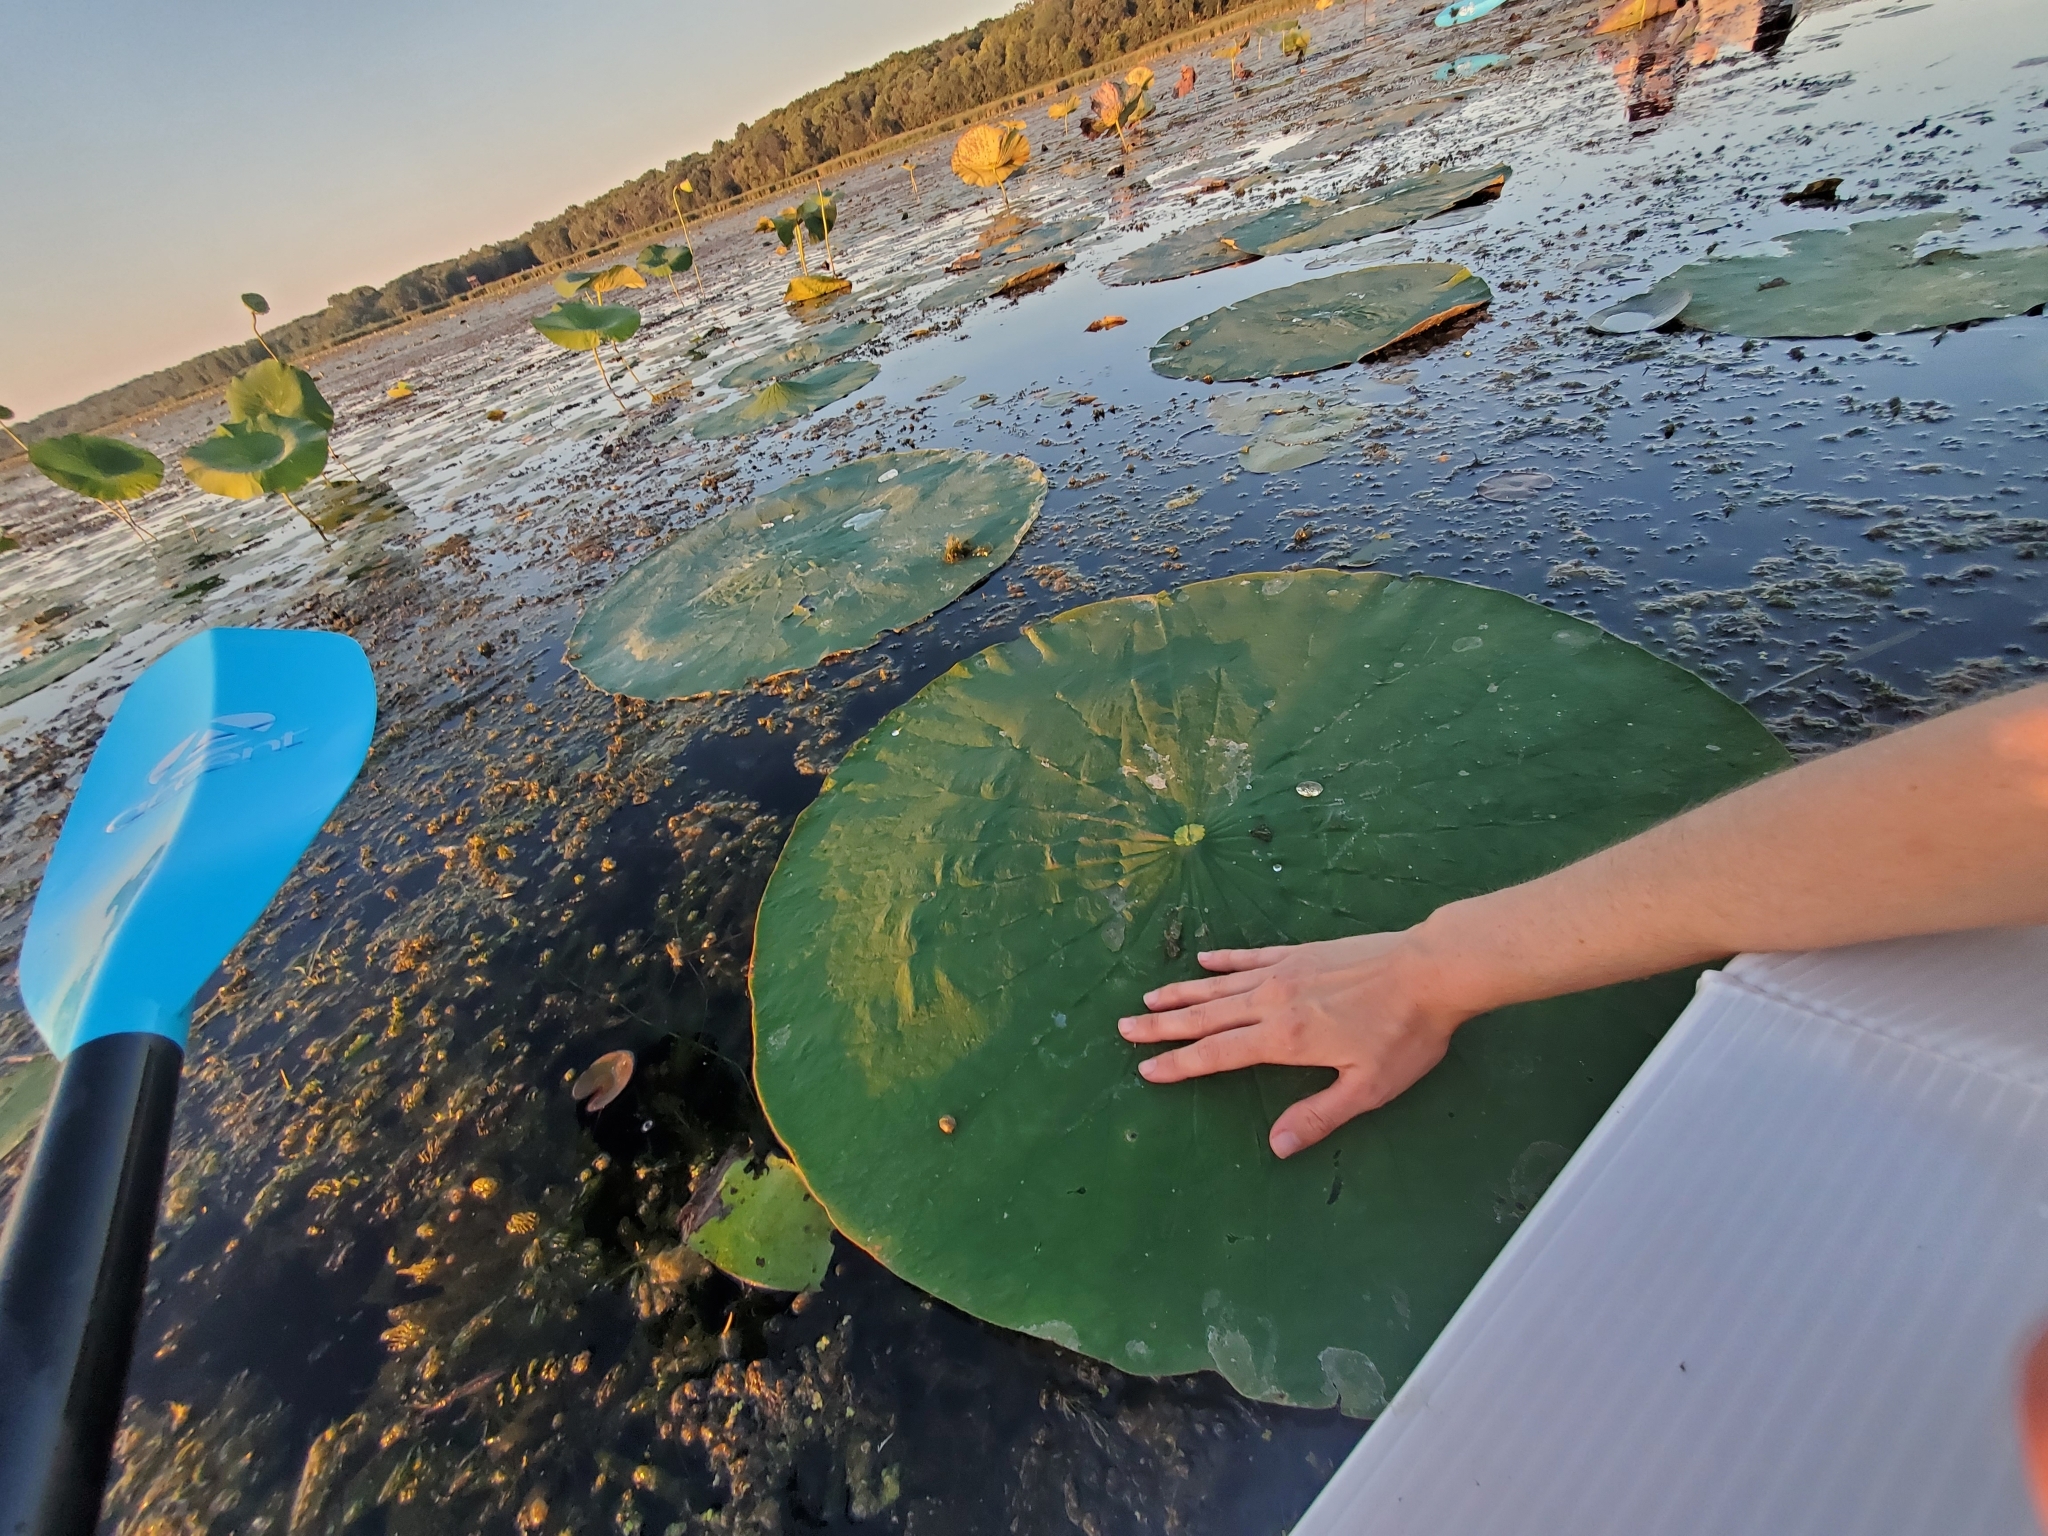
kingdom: Plantae
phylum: Tracheophyta
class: Magnoliopsida
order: Proteales
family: Nelumbonaceae
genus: Nelumbo
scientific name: Nelumbo lutea
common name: American lotus
